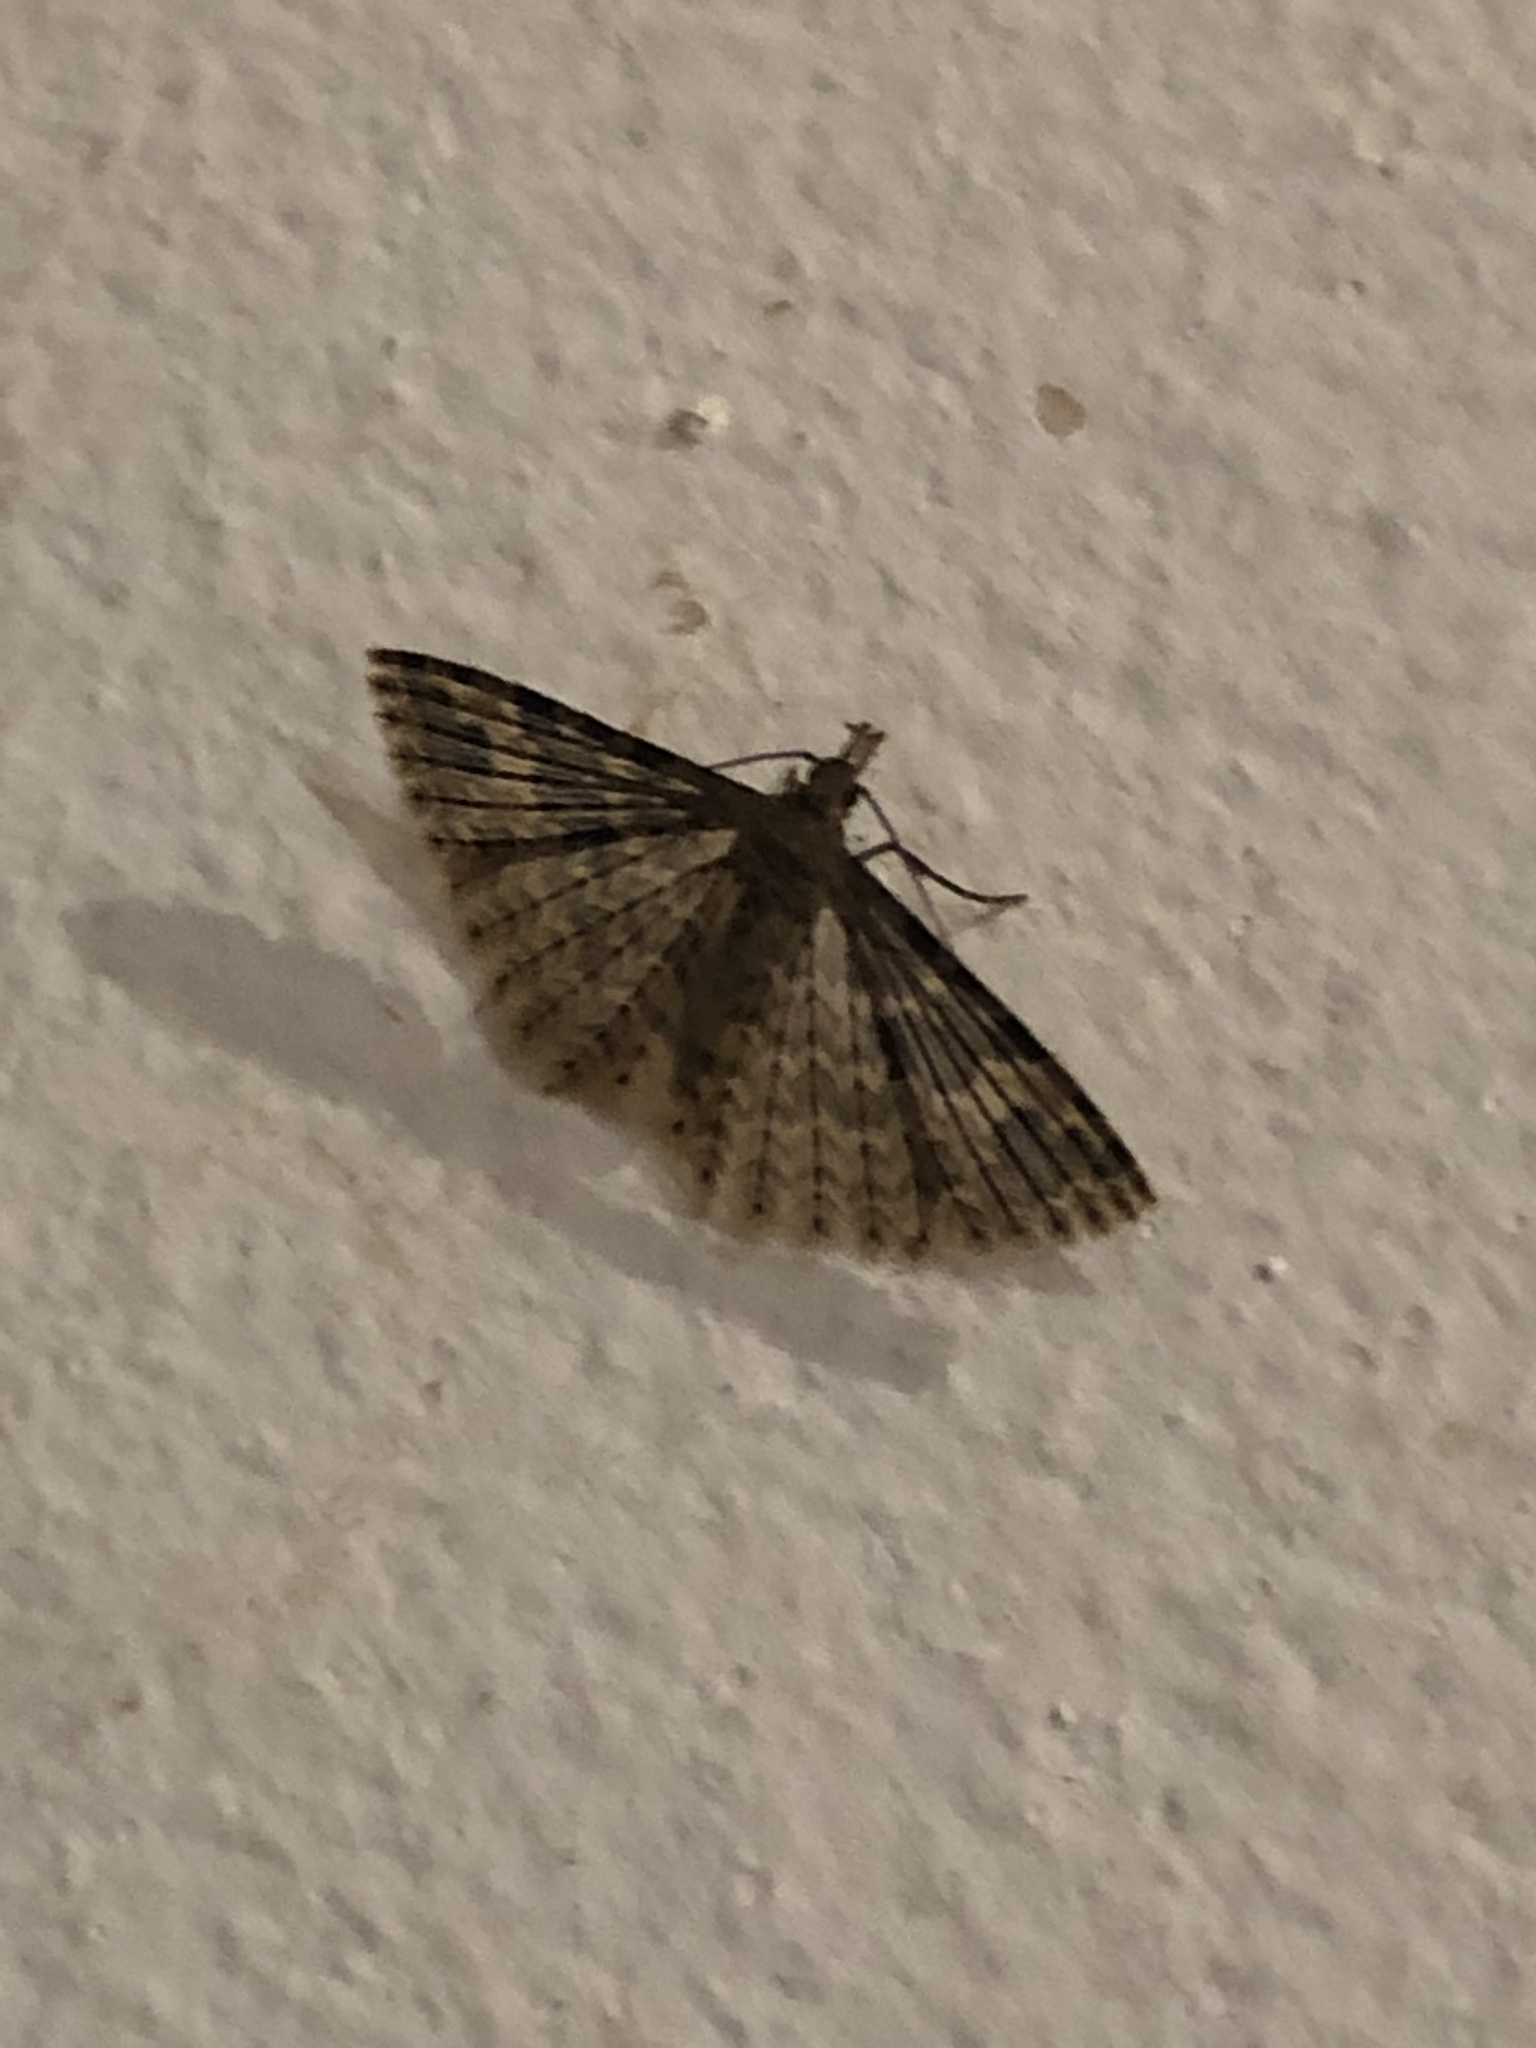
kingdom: Animalia
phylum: Arthropoda
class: Insecta
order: Lepidoptera
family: Alucitidae
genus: Alucita
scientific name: Alucita hexadactyla
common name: Twenty-plume moth
